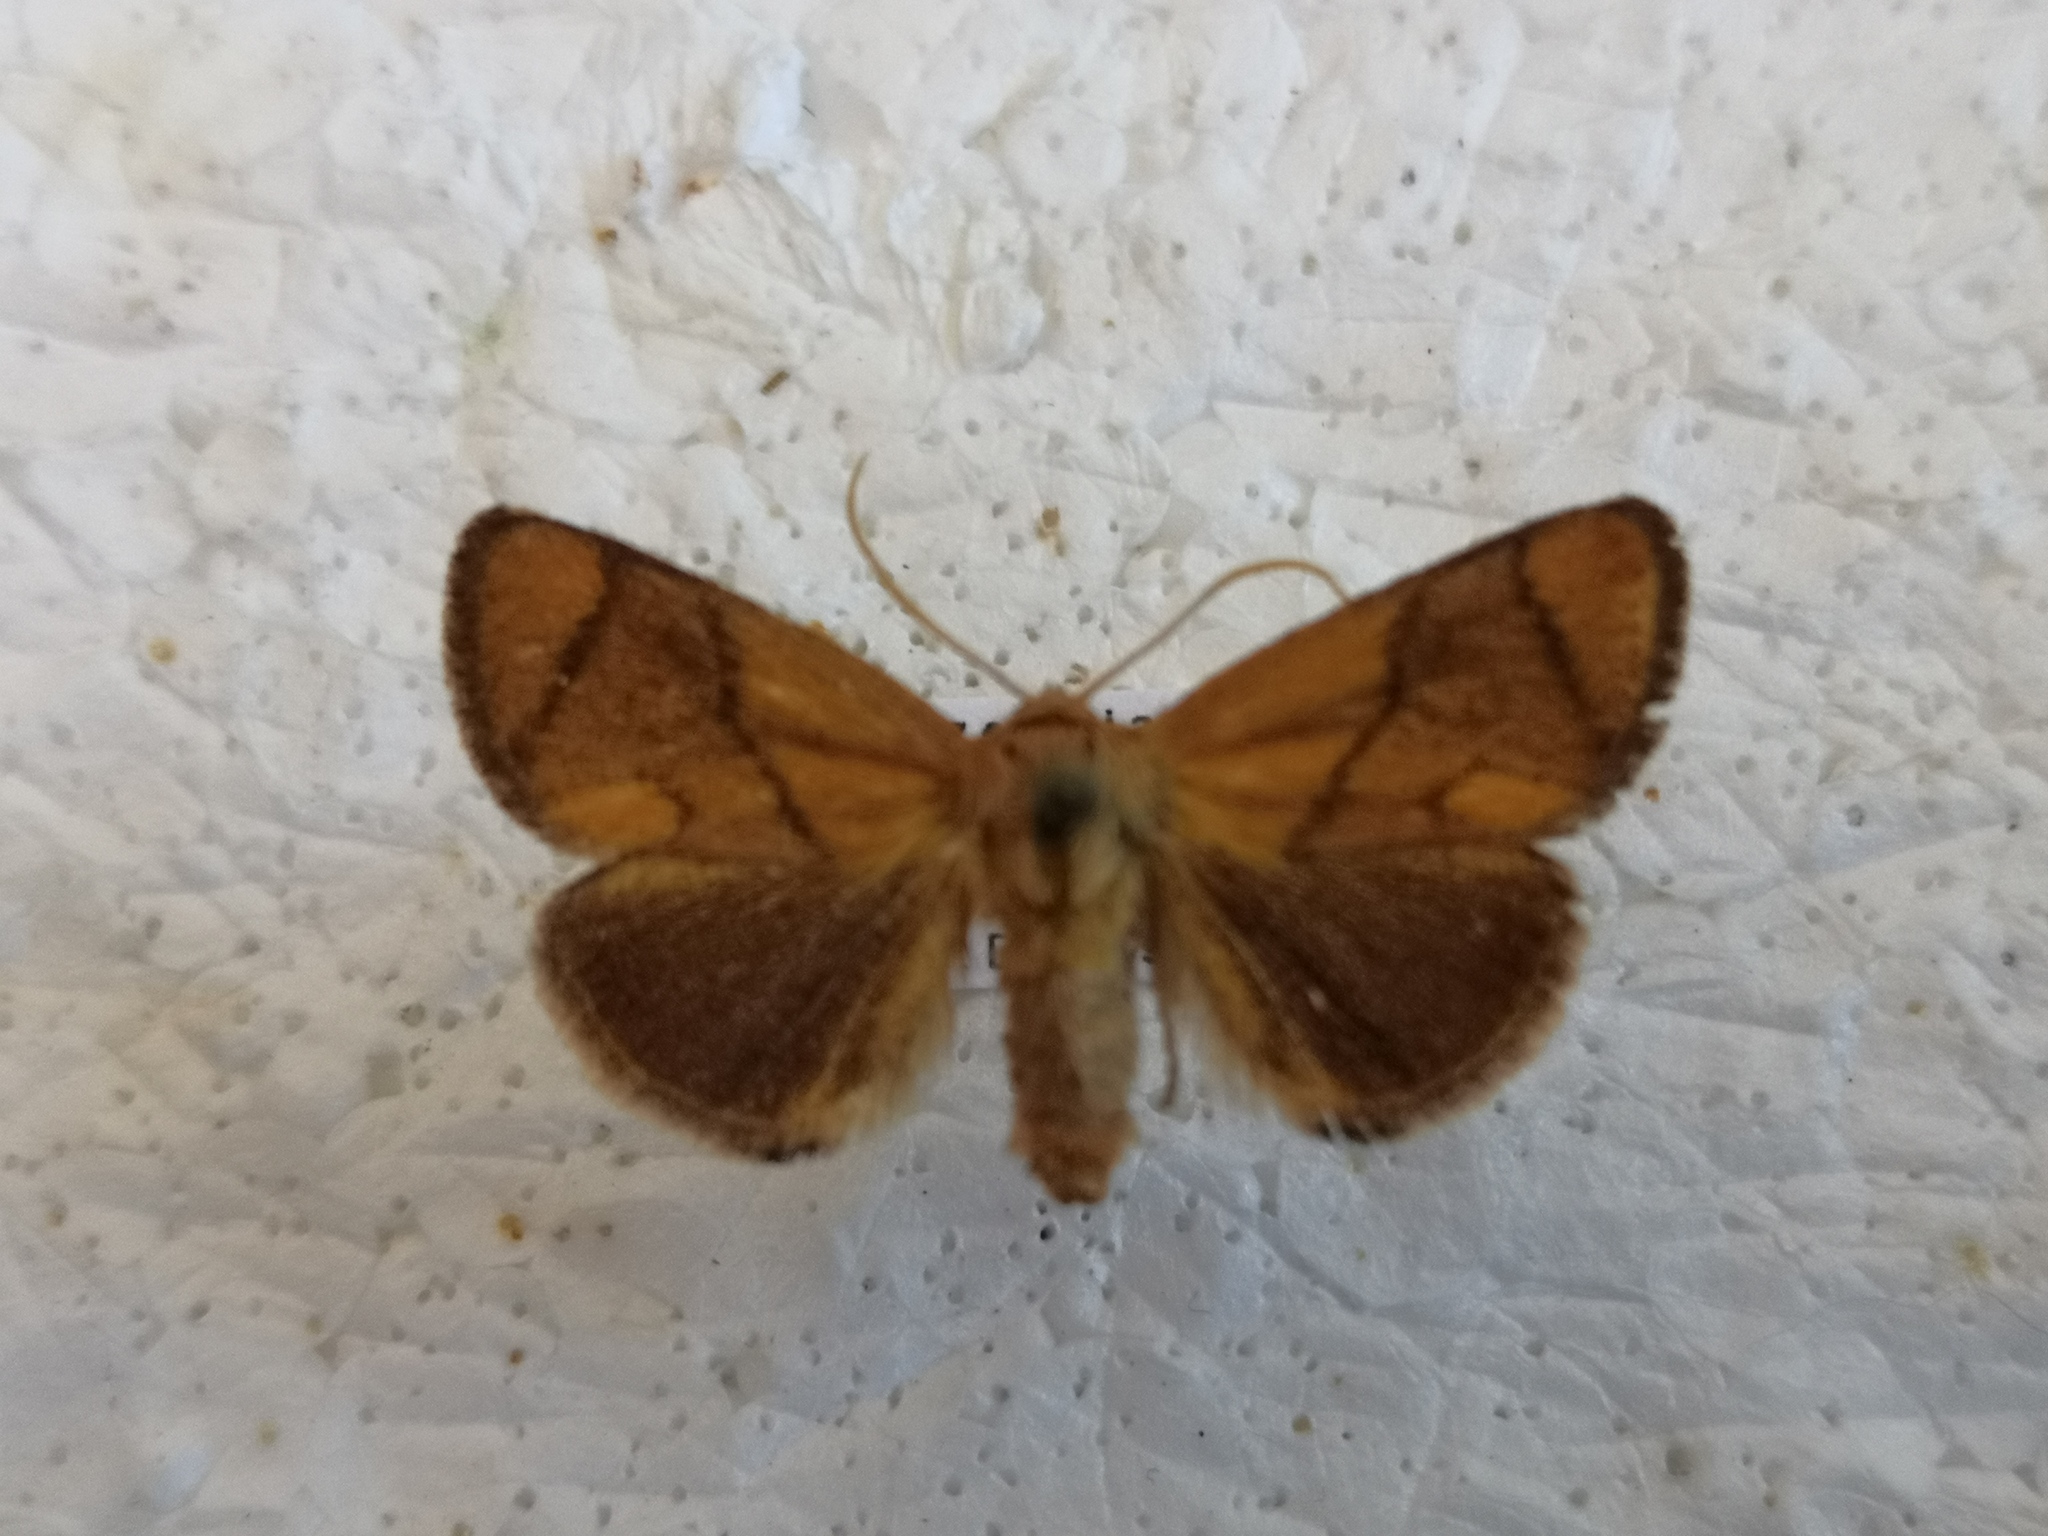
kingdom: Animalia
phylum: Arthropoda
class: Insecta
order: Lepidoptera
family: Limacodidae
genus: Apoda
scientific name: Apoda limacodes
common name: Festoon
